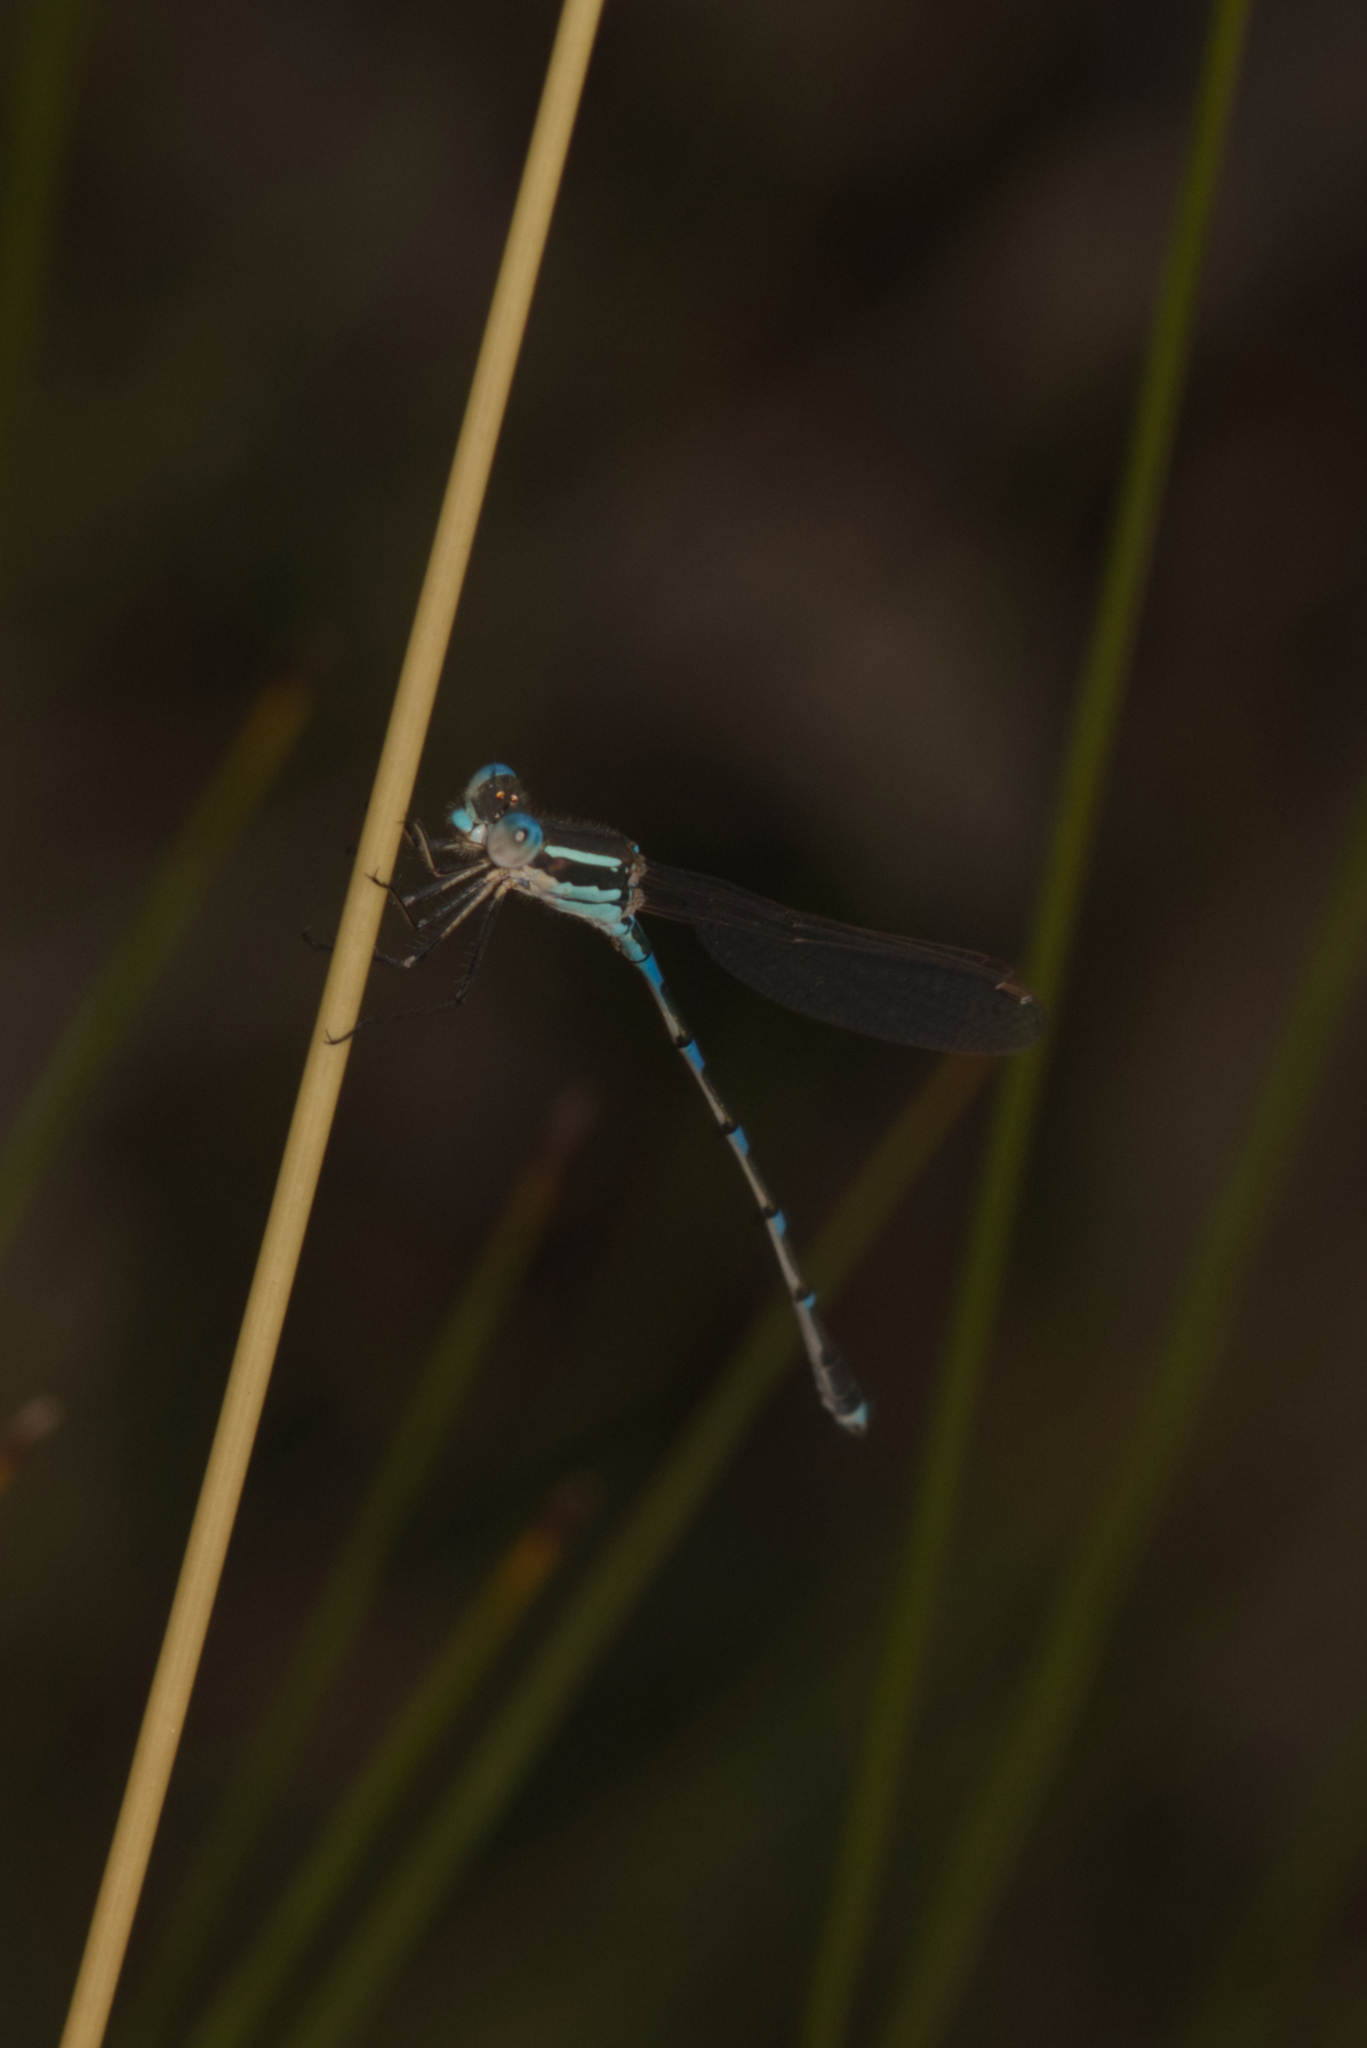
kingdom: Animalia
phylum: Arthropoda
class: Insecta
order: Odonata
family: Lestidae
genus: Austrolestes
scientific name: Austrolestes leda
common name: Wandering ringtail
